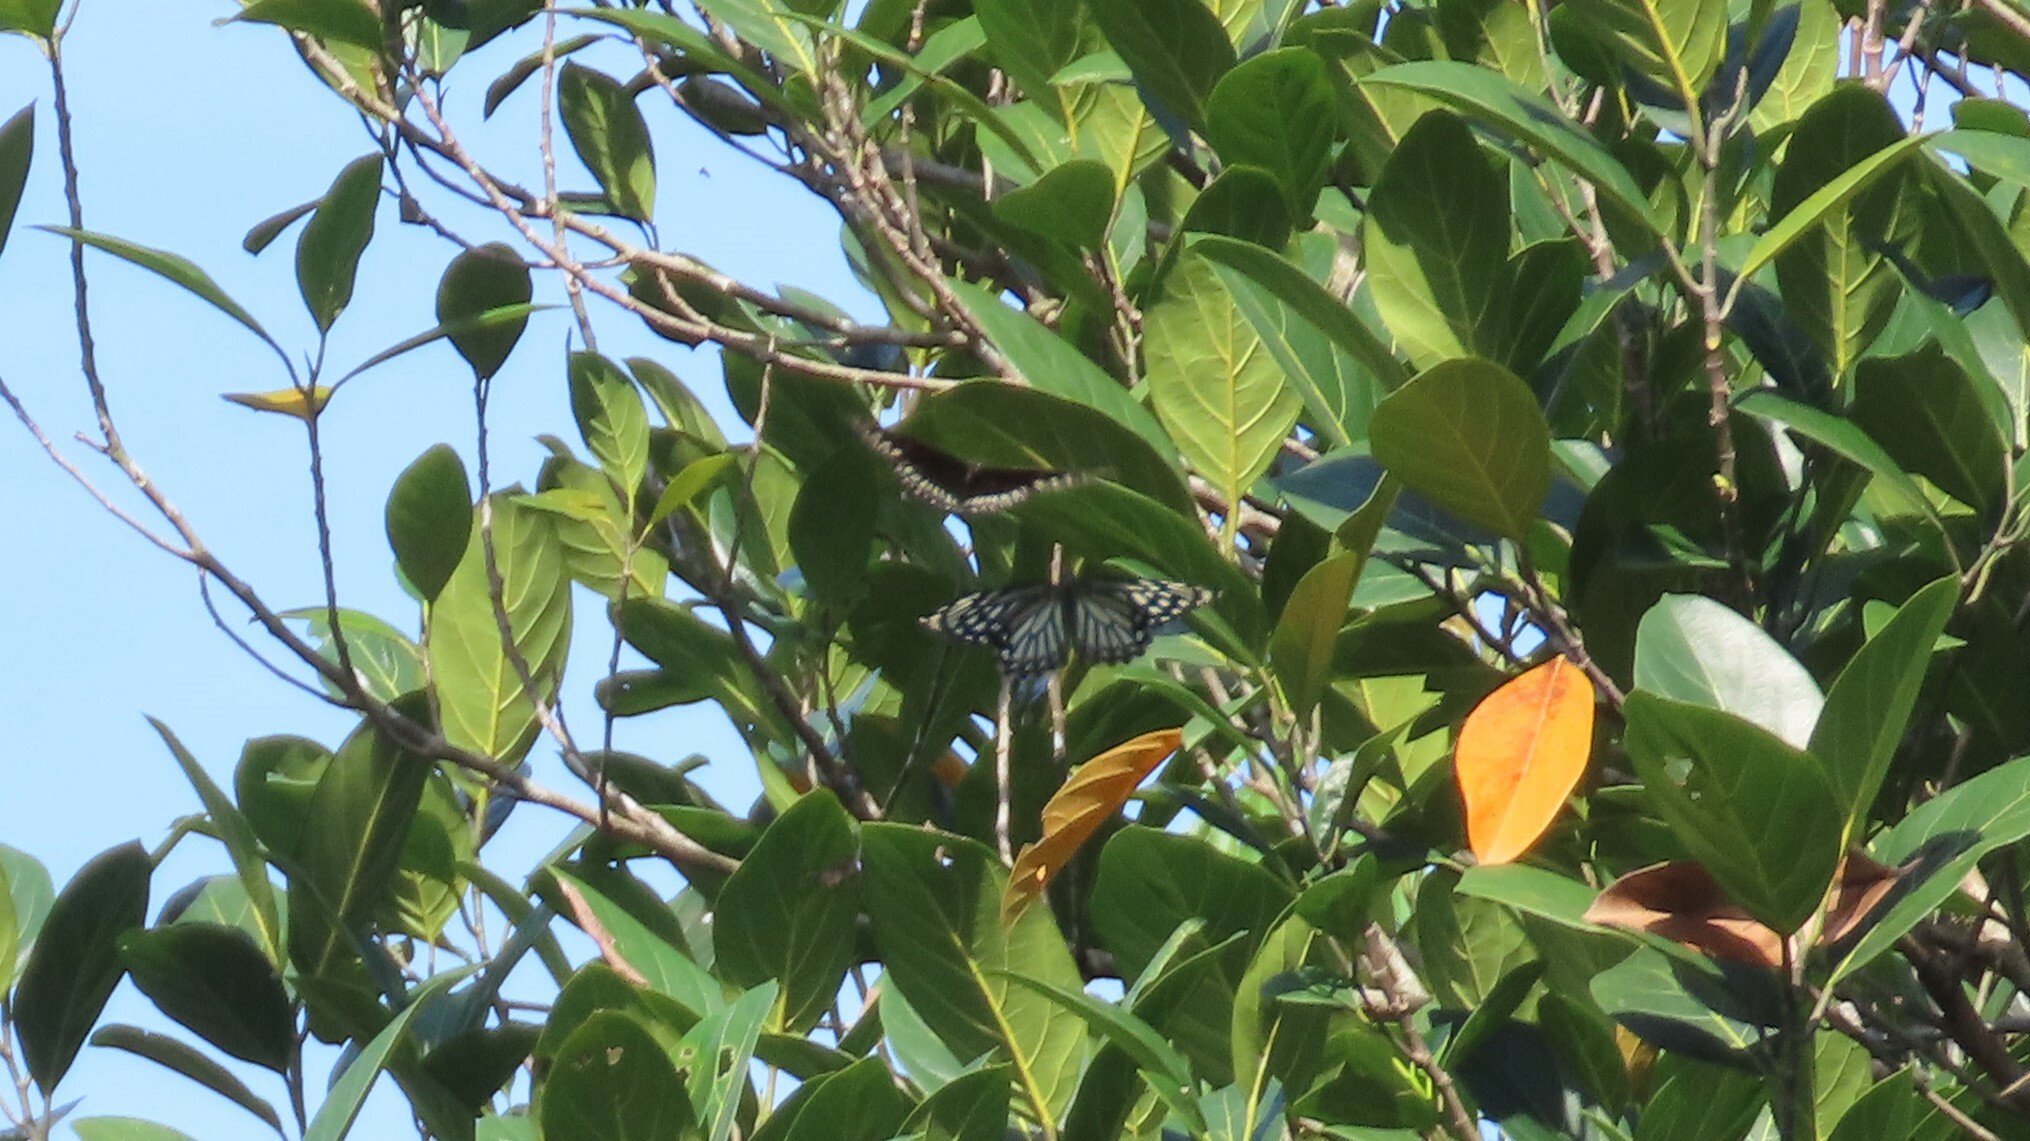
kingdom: Animalia
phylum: Arthropoda
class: Insecta
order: Lepidoptera
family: Papilionidae
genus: Chilasa
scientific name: Chilasa clytia
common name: Common mime
